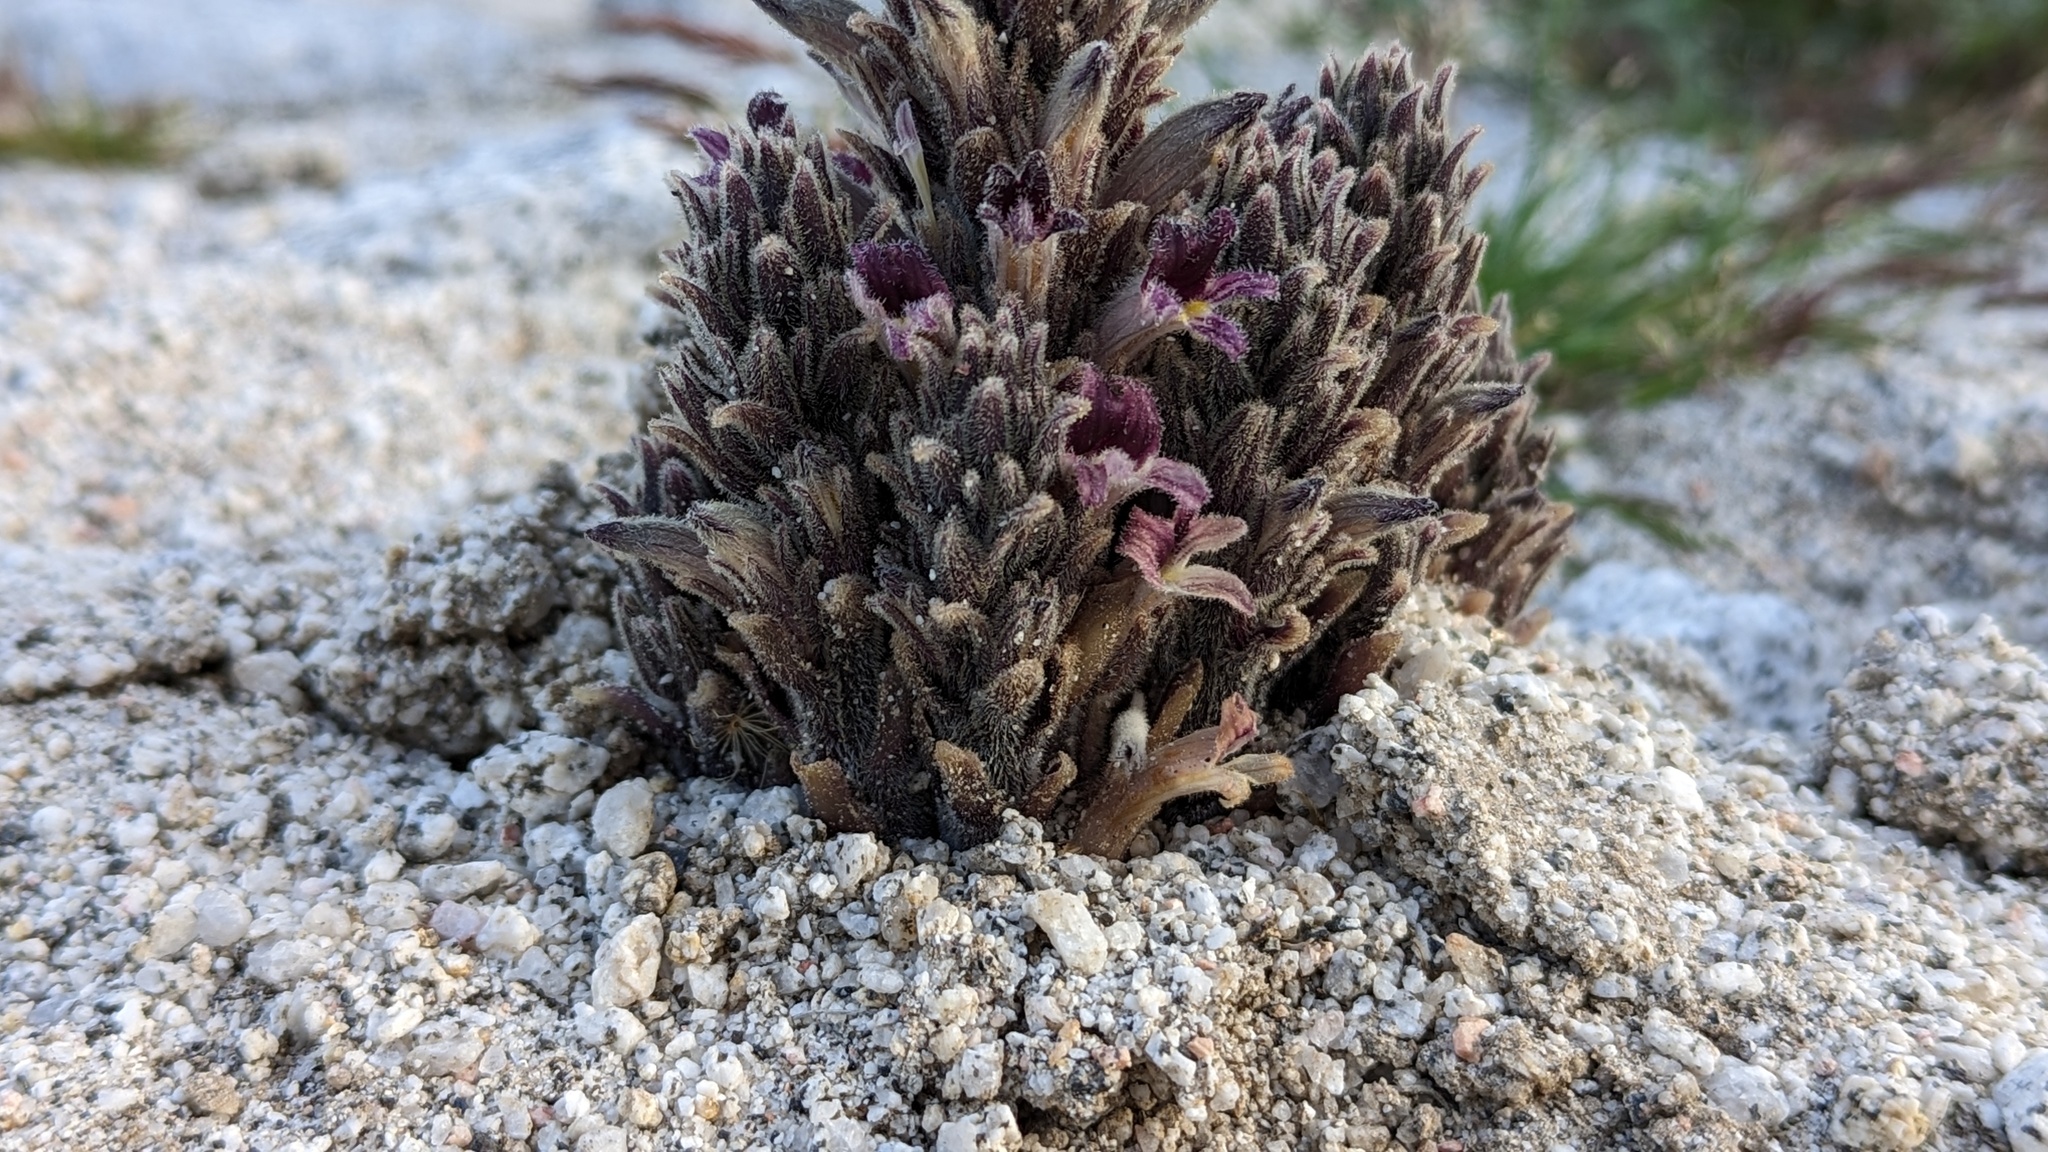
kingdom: Plantae
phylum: Tracheophyta
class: Magnoliopsida
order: Lamiales
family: Orobanchaceae
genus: Aphyllon
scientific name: Aphyllon cooperi
